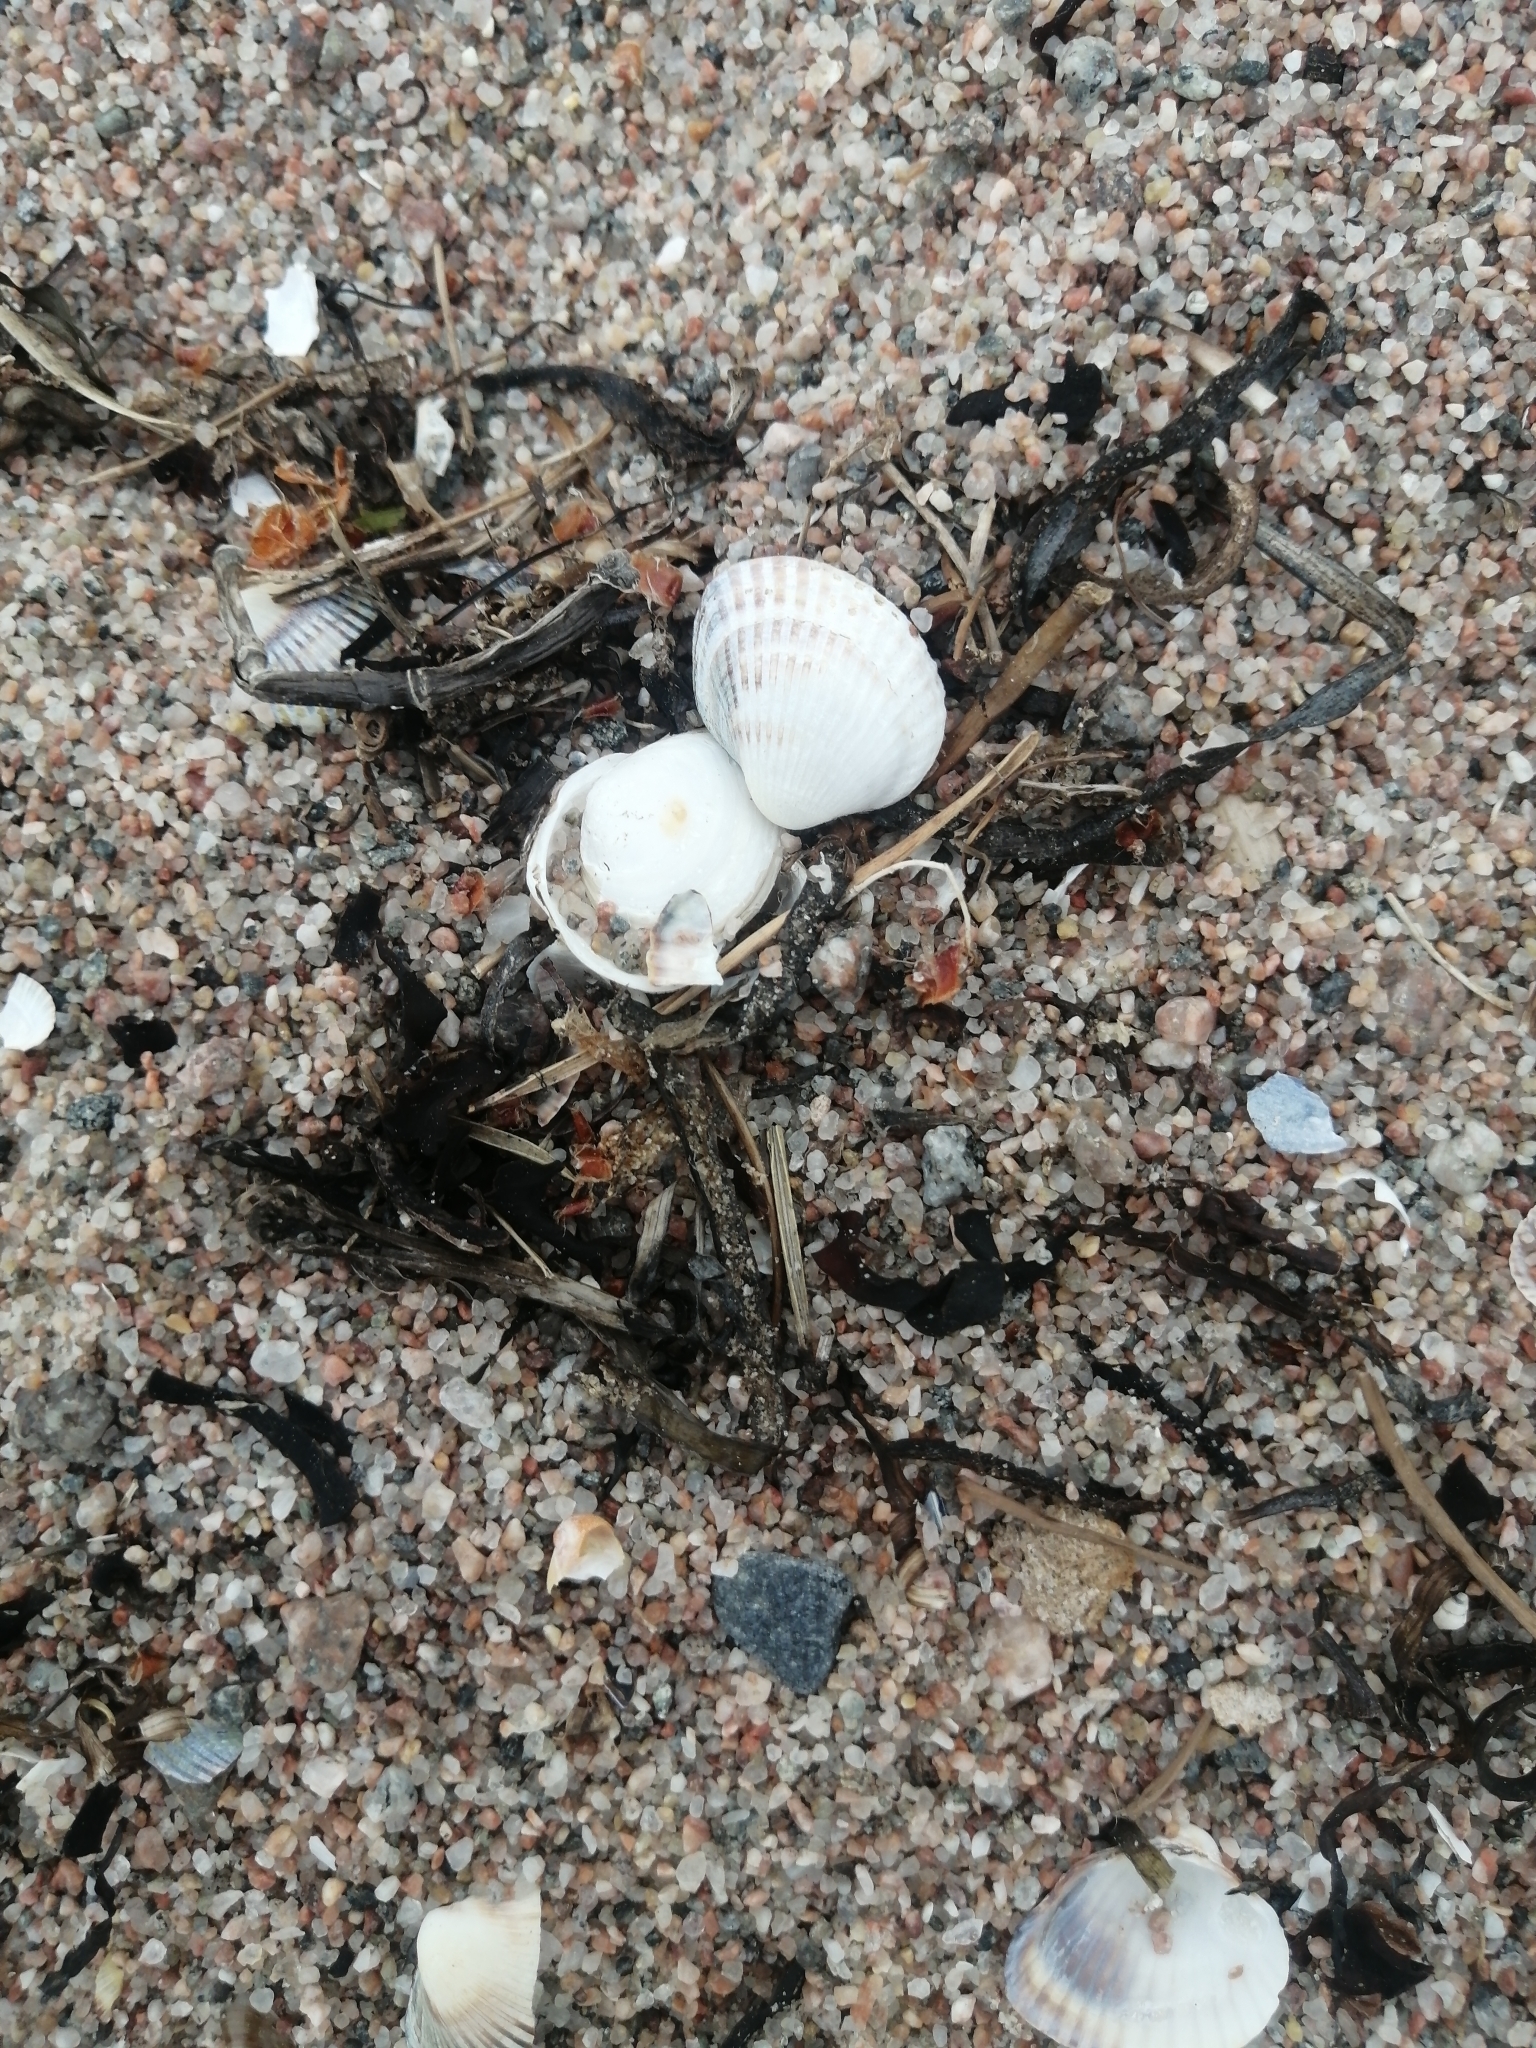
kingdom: Animalia
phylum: Mollusca
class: Bivalvia
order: Cardiida
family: Cardiidae
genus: Cerastoderma
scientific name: Cerastoderma glaucum
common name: Lagoon cockle
